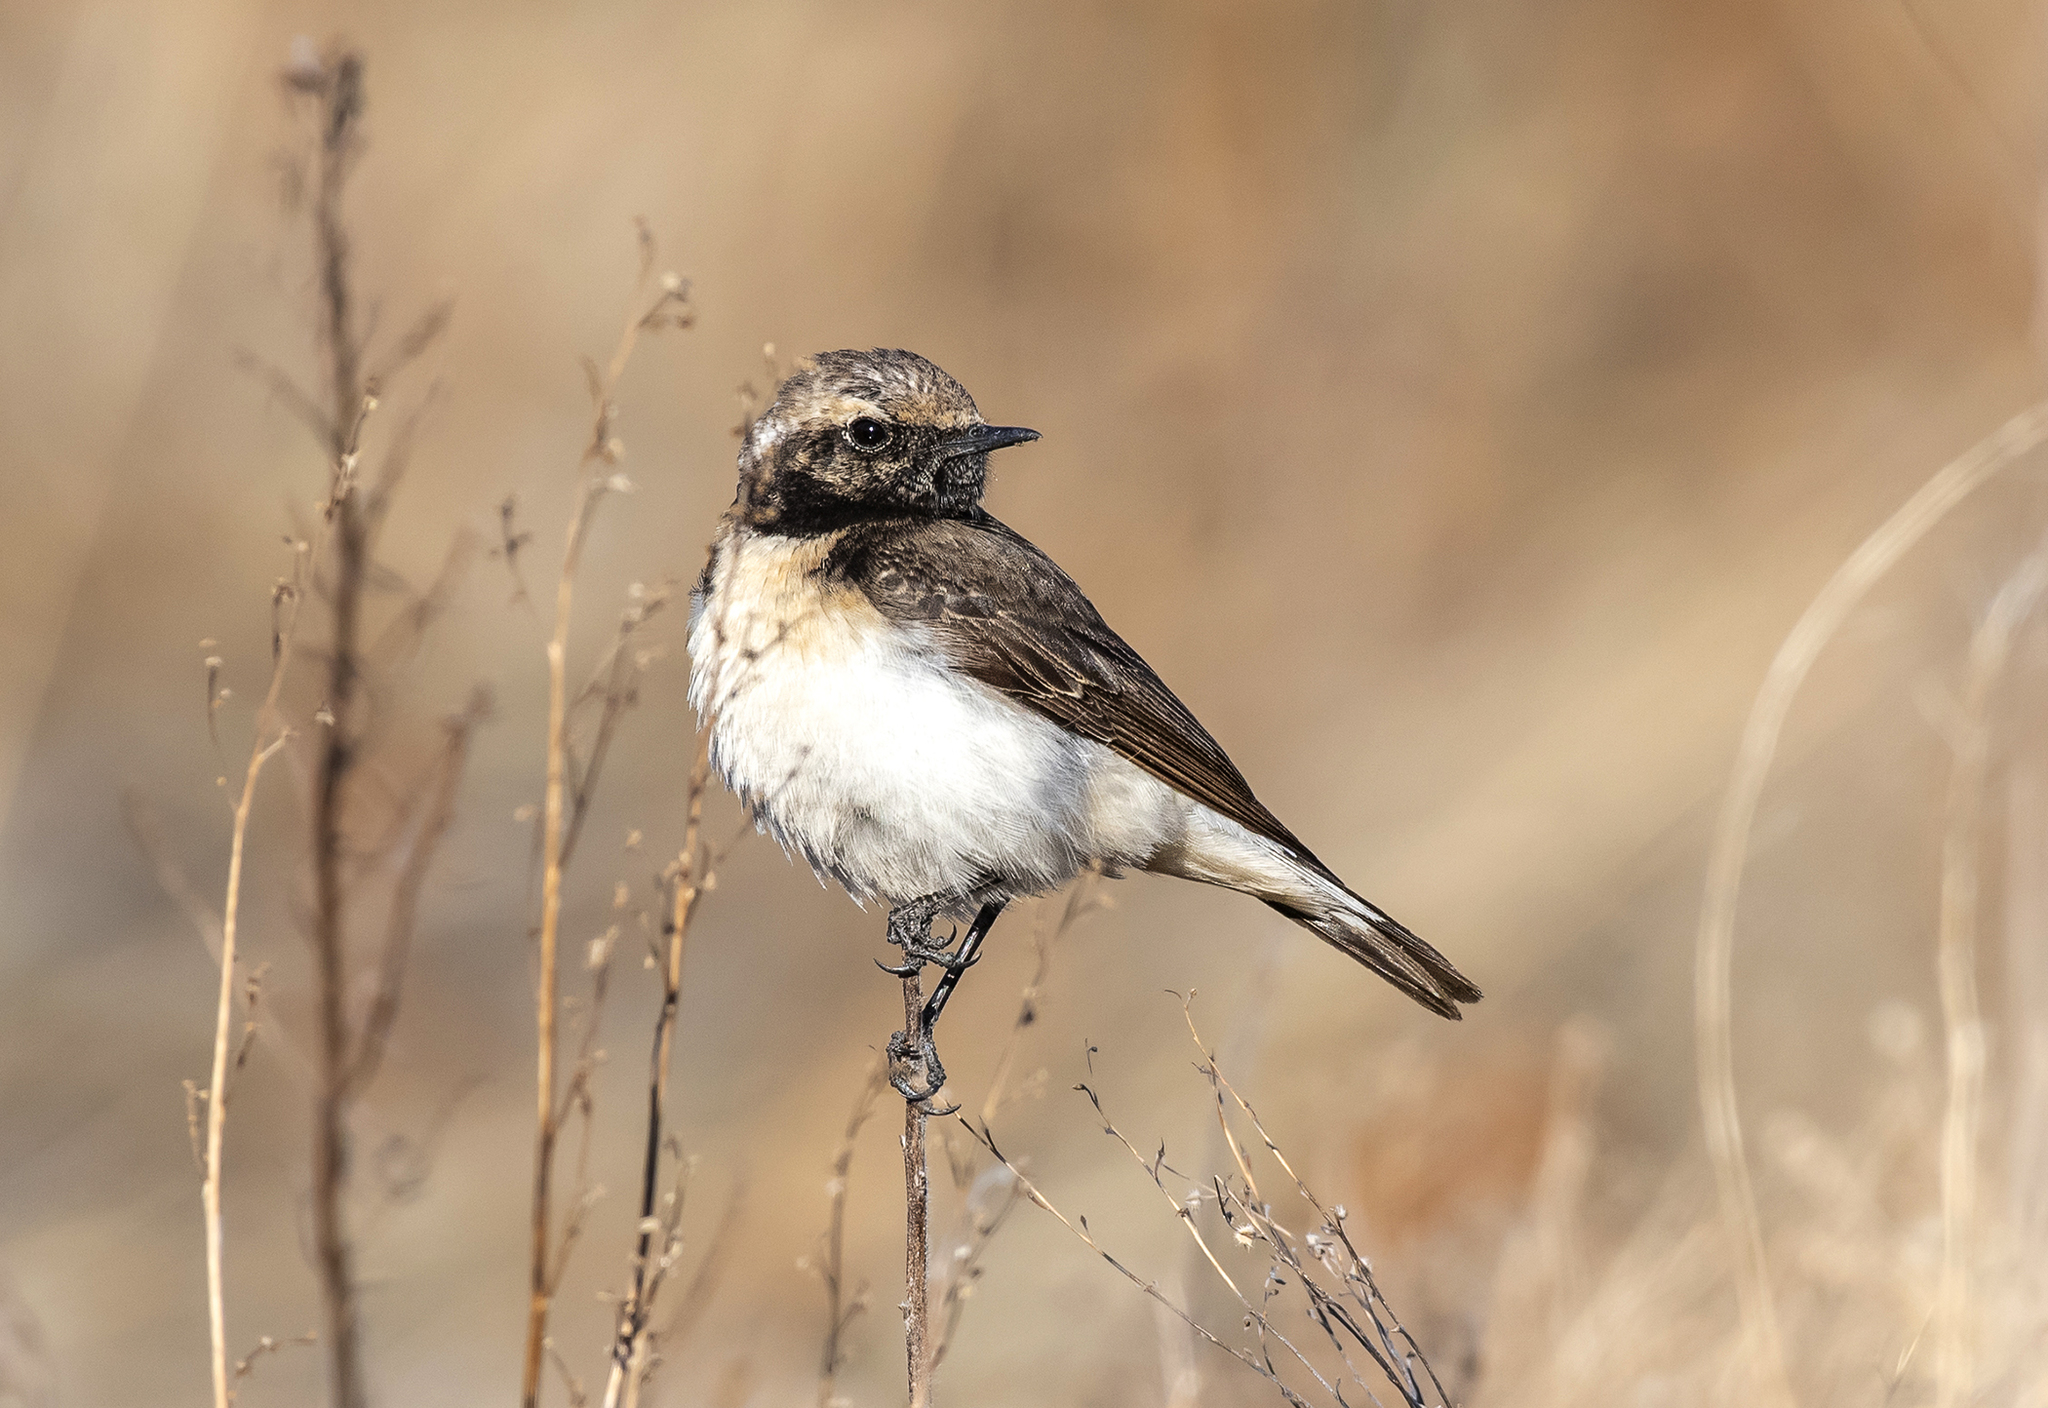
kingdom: Animalia
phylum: Chordata
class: Aves
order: Passeriformes
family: Muscicapidae
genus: Oenanthe
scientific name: Oenanthe pleschanka
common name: Pied wheatear
